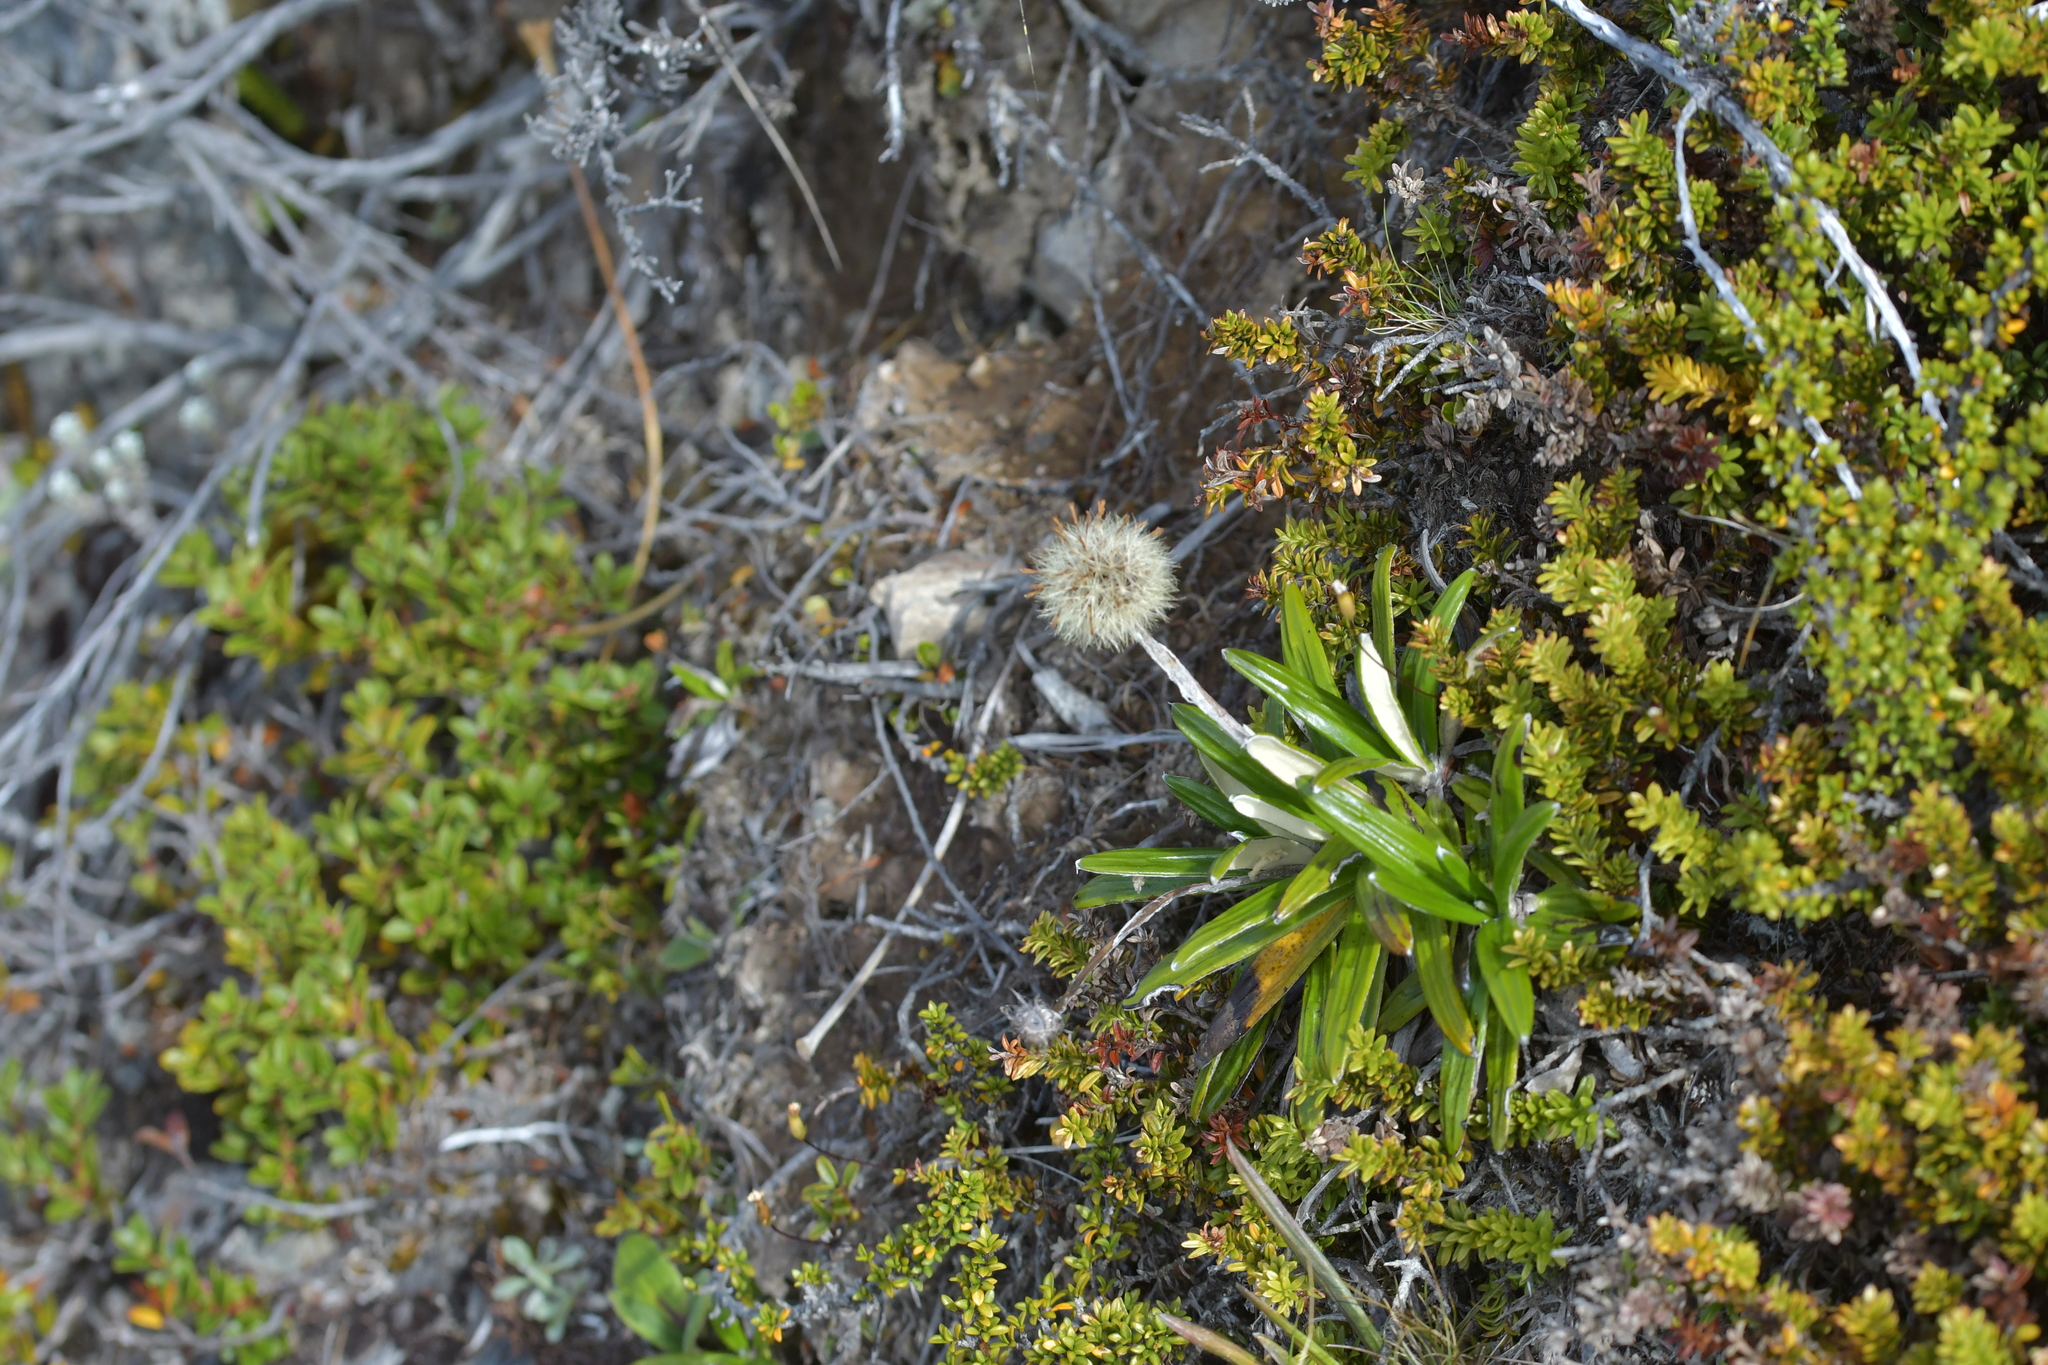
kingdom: Plantae
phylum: Tracheophyta
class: Magnoliopsida
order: Asterales
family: Asteraceae
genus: Celmisia
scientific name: Celmisia spectabilis
